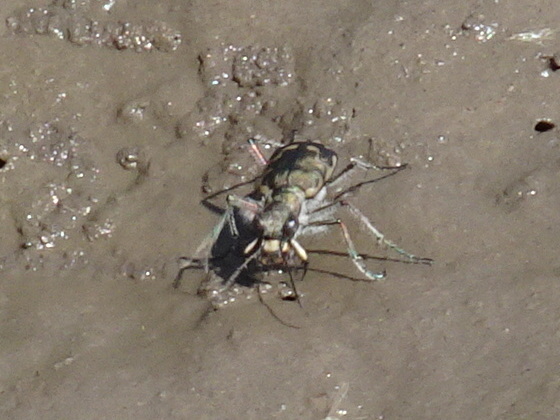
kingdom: Animalia
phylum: Arthropoda
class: Insecta
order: Coleoptera
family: Carabidae
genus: Cicindela
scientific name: Cicindela repanda
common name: Bronzed tiger beetle
